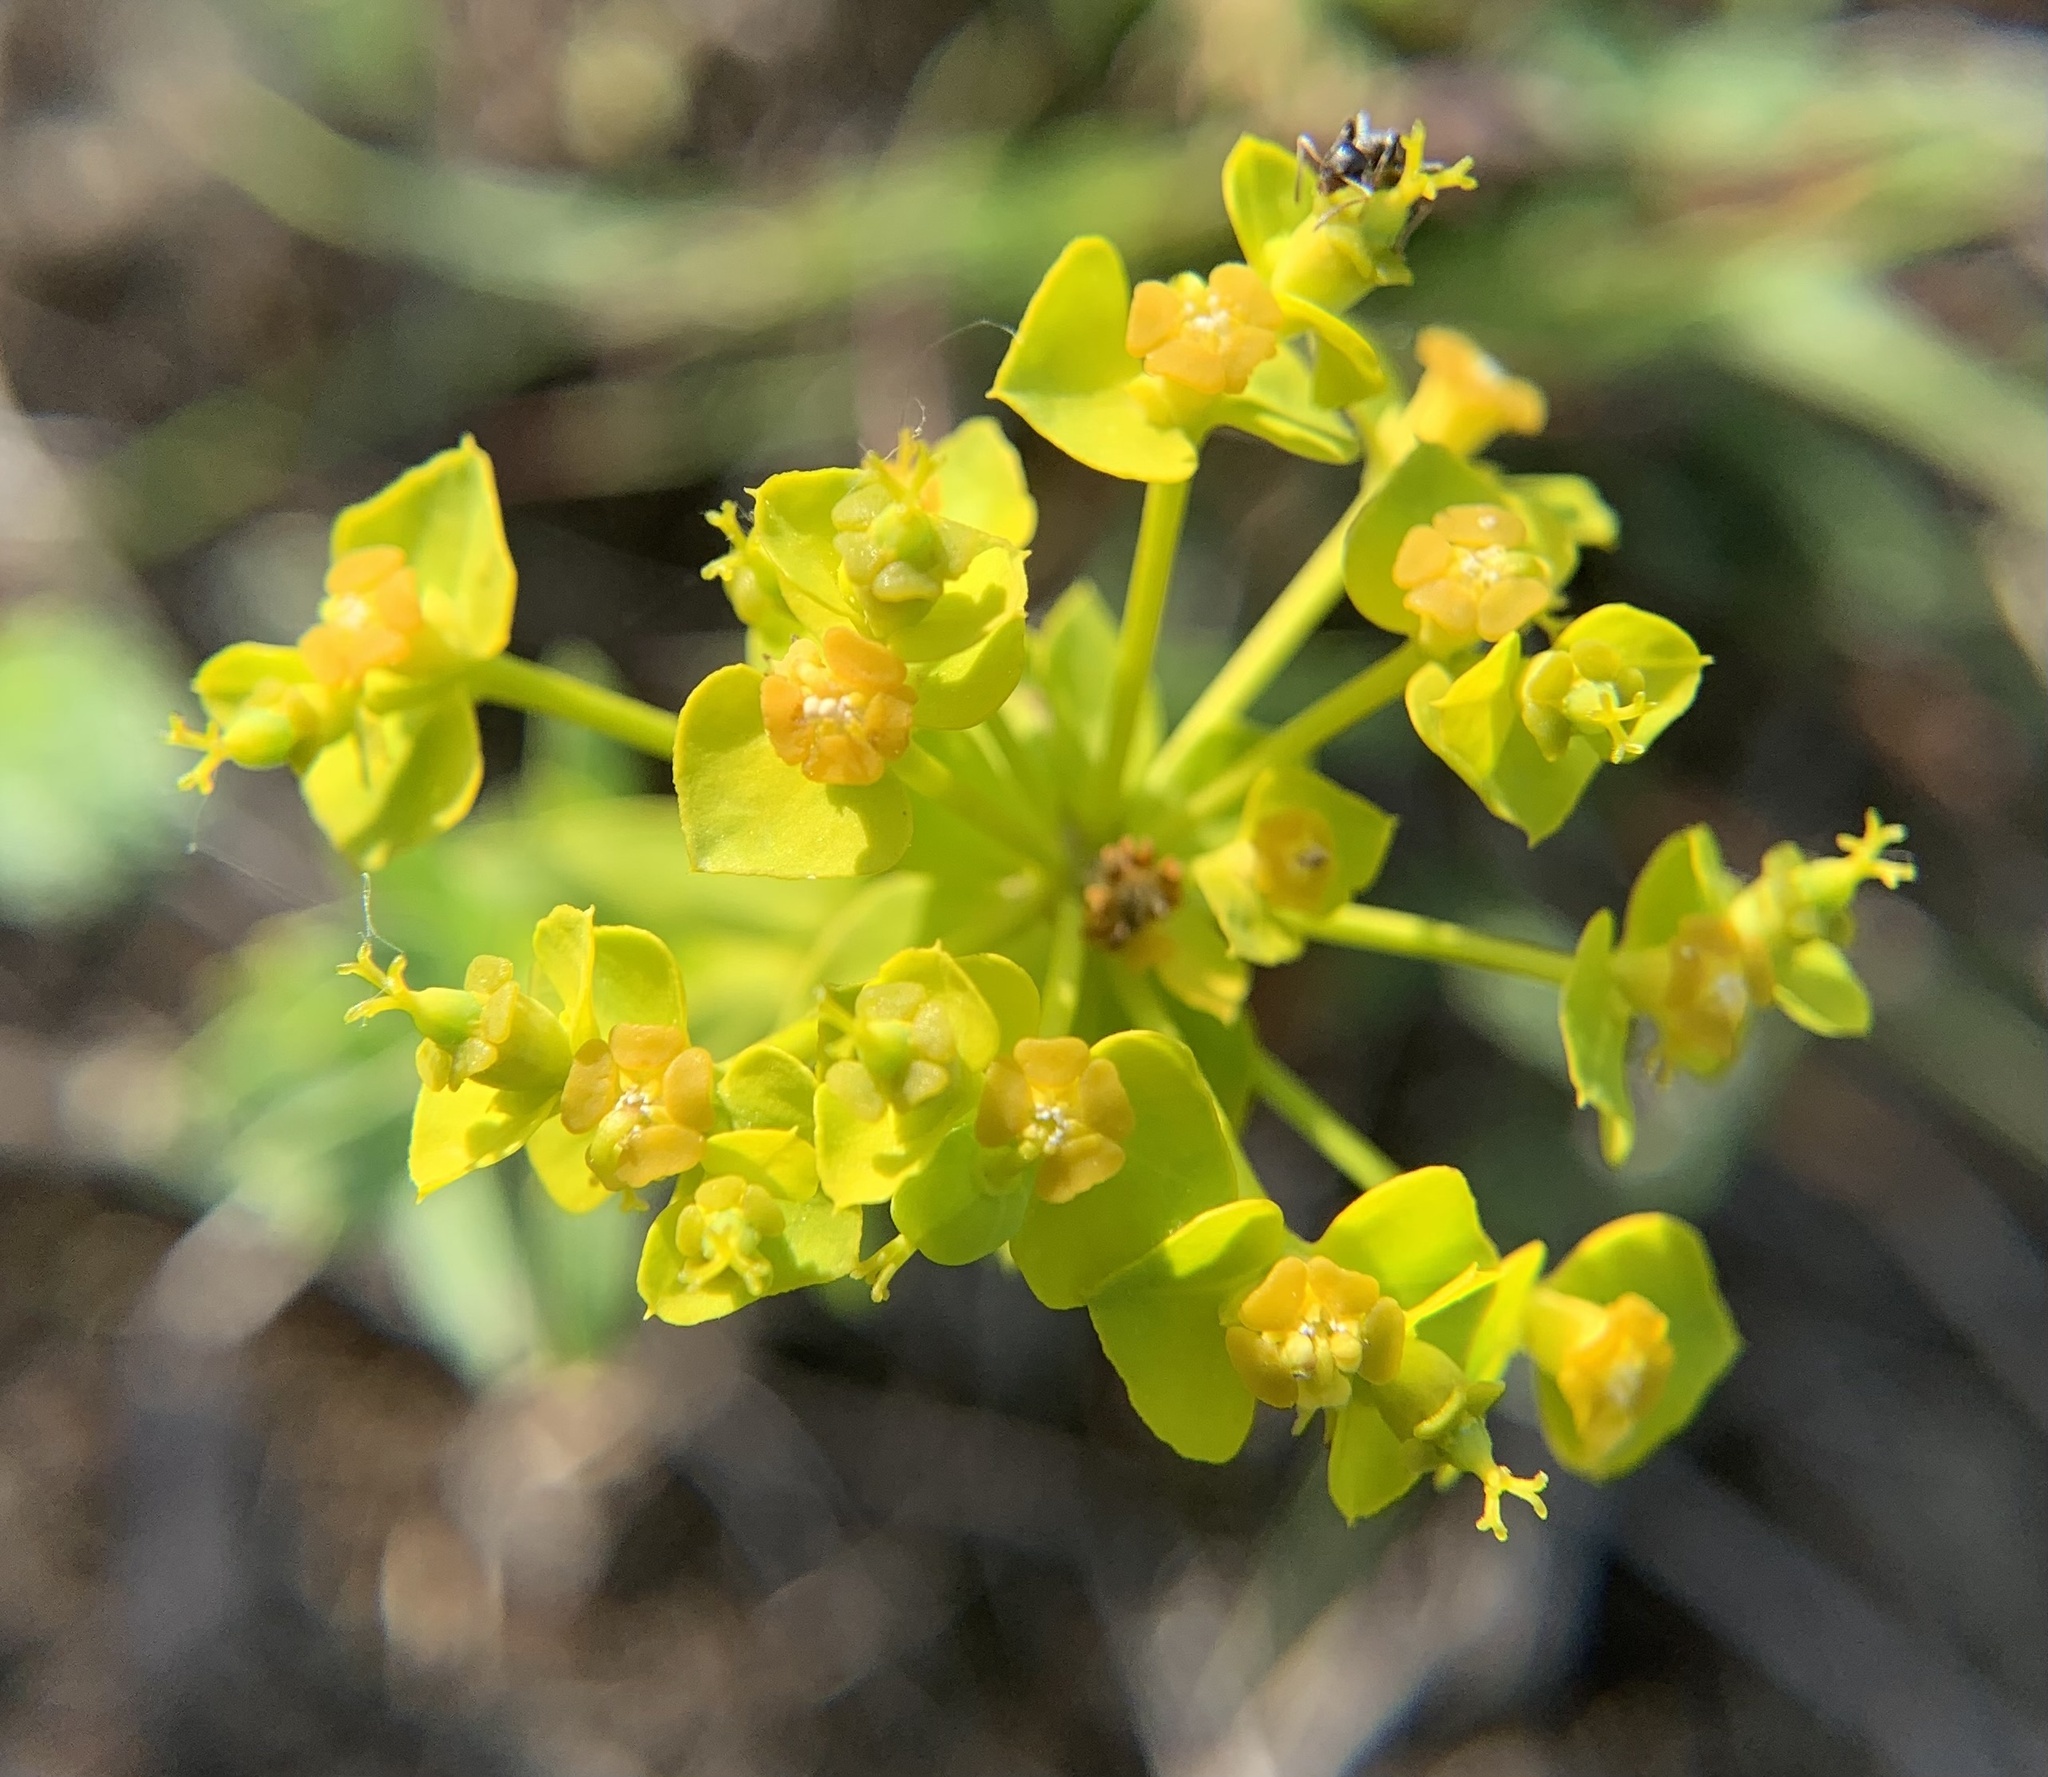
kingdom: Plantae
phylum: Tracheophyta
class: Magnoliopsida
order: Malpighiales
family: Euphorbiaceae
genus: Euphorbia
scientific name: Euphorbia seguieriana
